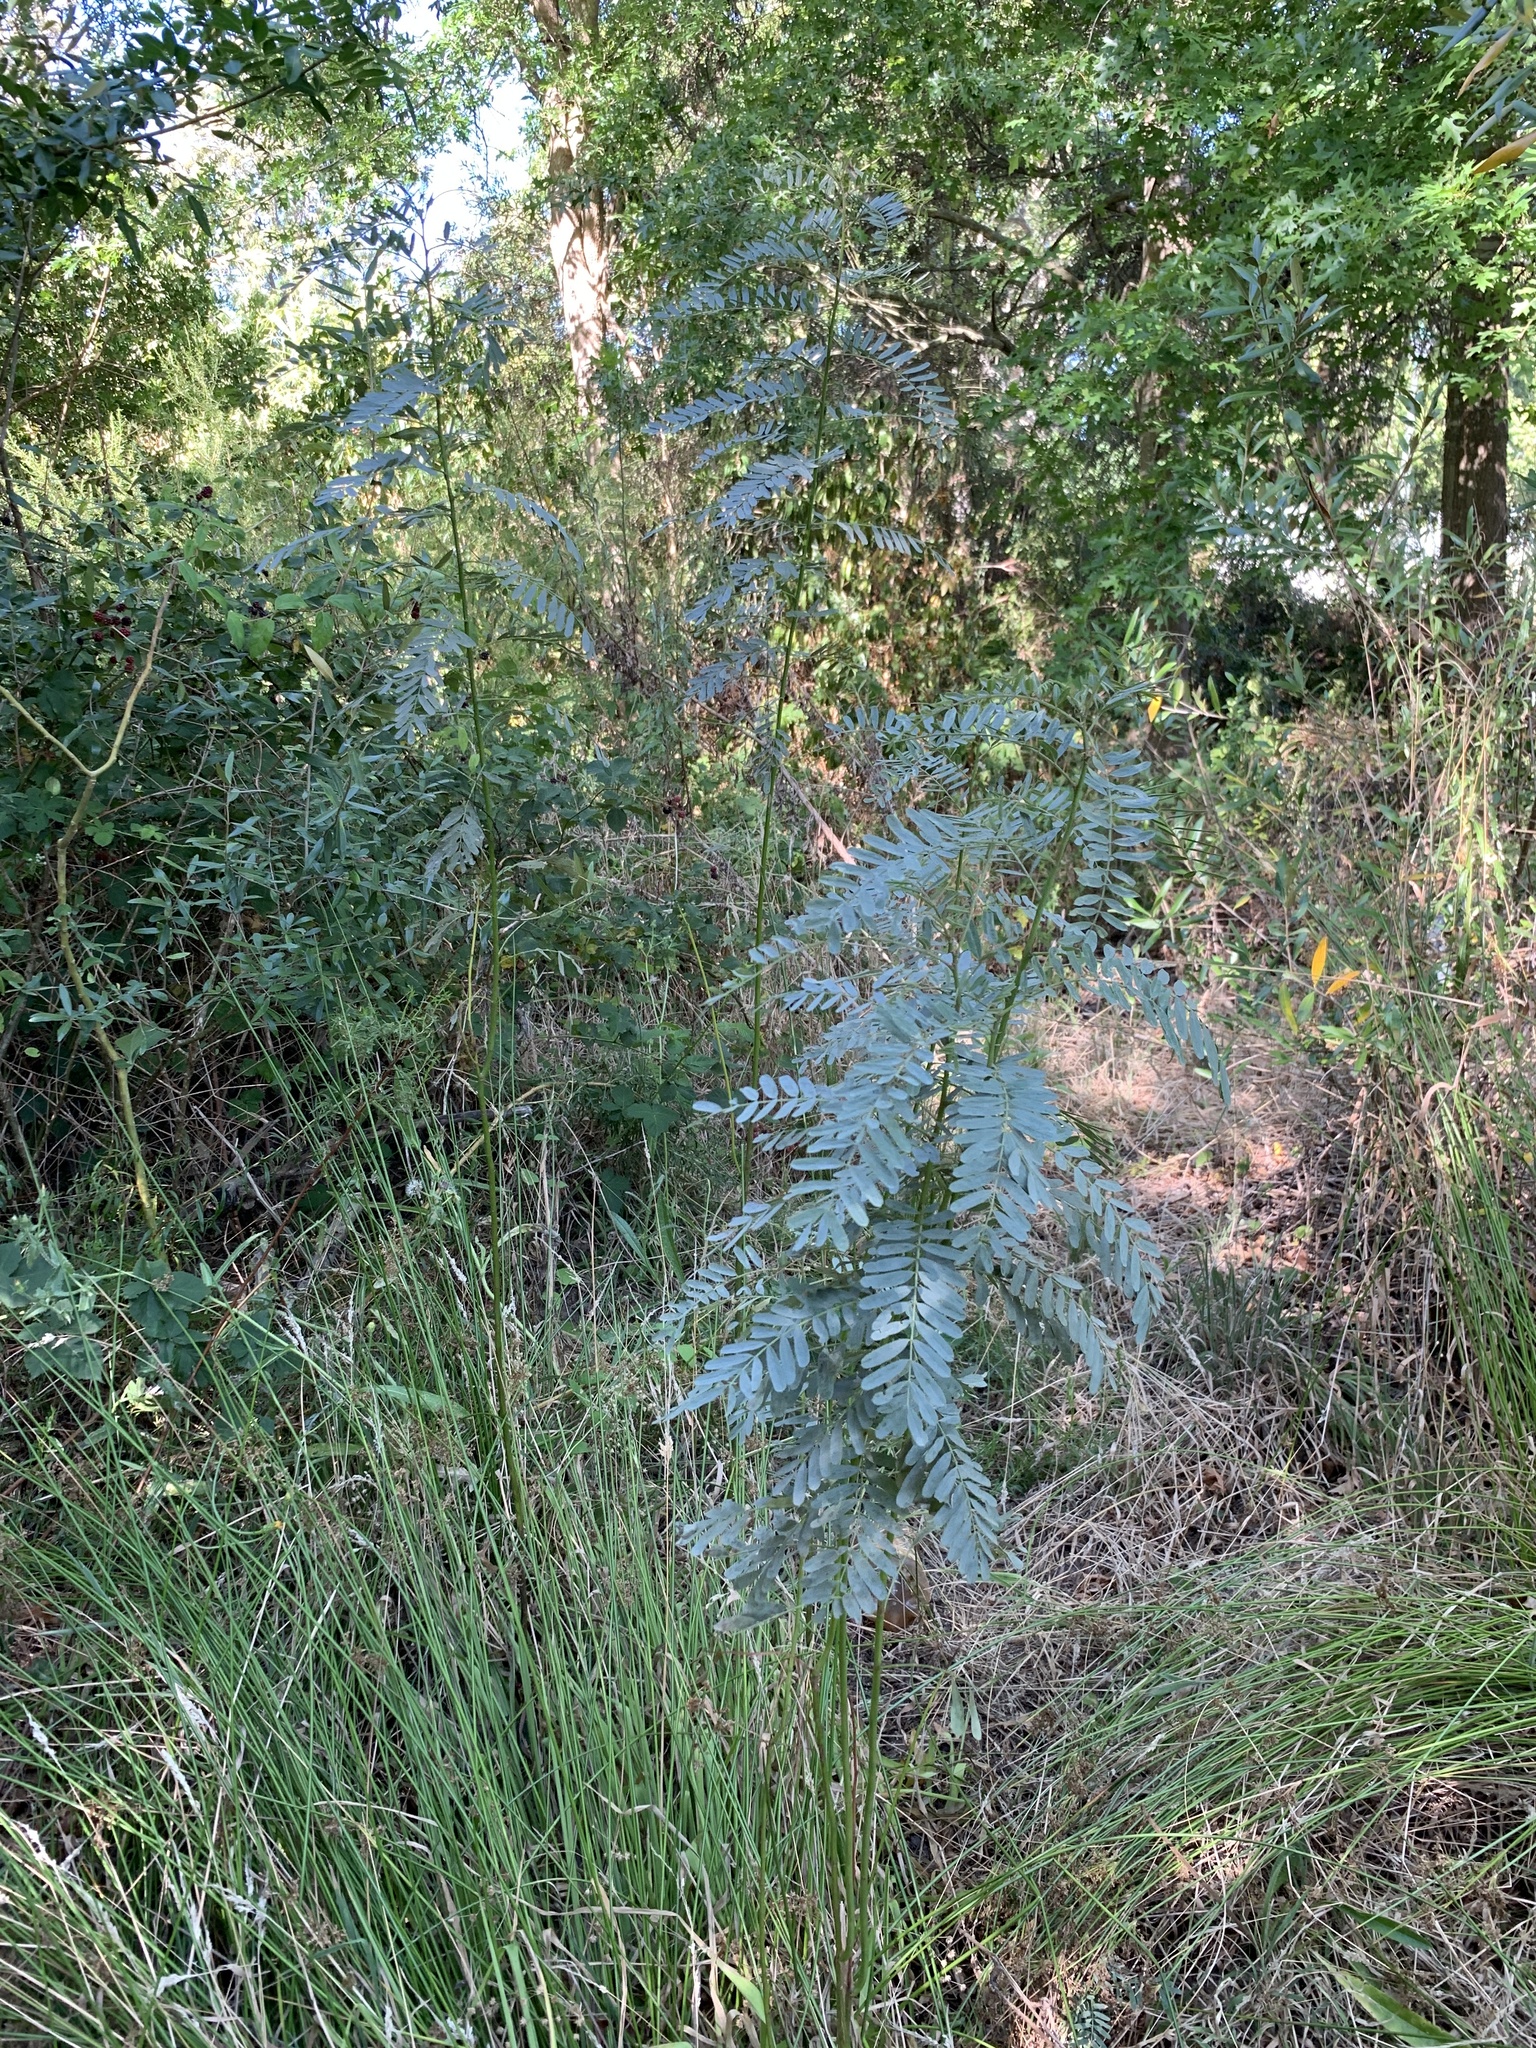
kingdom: Plantae
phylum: Tracheophyta
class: Magnoliopsida
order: Fabales
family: Fabaceae
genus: Sesbania
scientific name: Sesbania punicea
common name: Rattlebox
